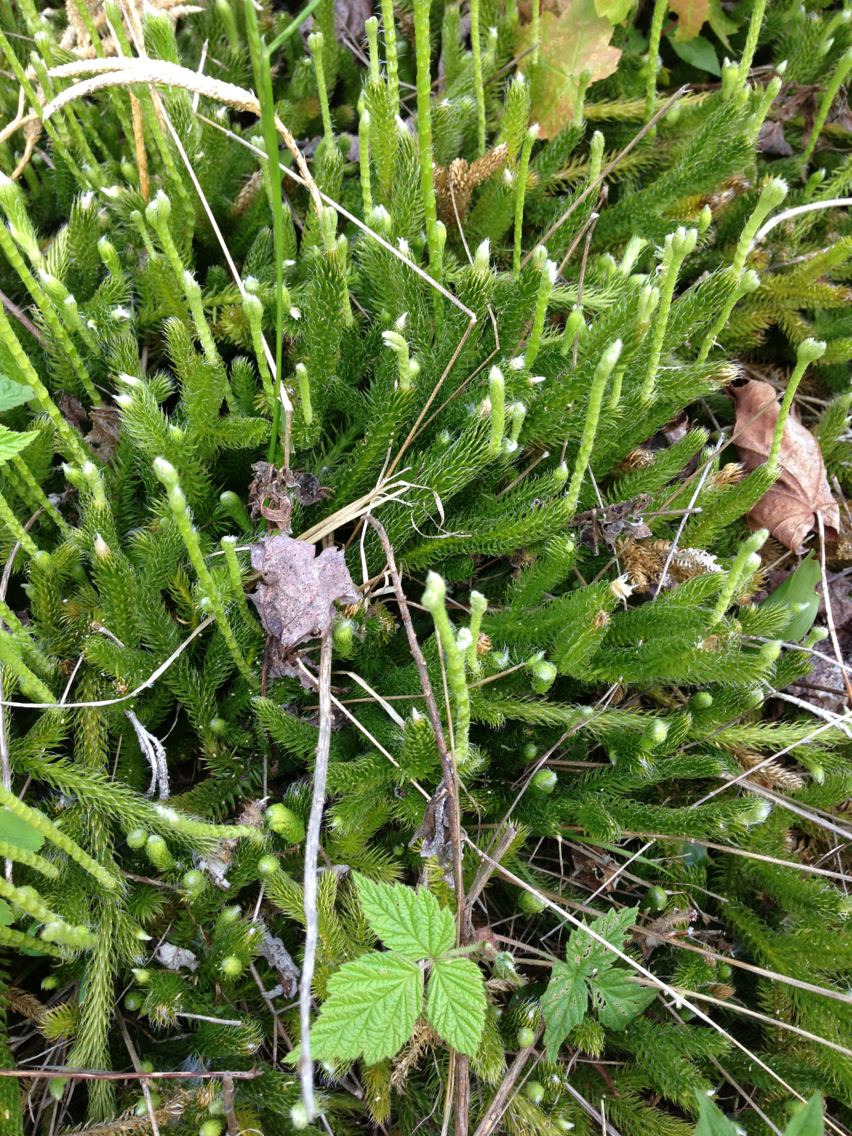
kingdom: Plantae
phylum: Tracheophyta
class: Lycopodiopsida
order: Lycopodiales
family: Lycopodiaceae
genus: Lycopodium
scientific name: Lycopodium clavatum
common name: Stag's-horn clubmoss
